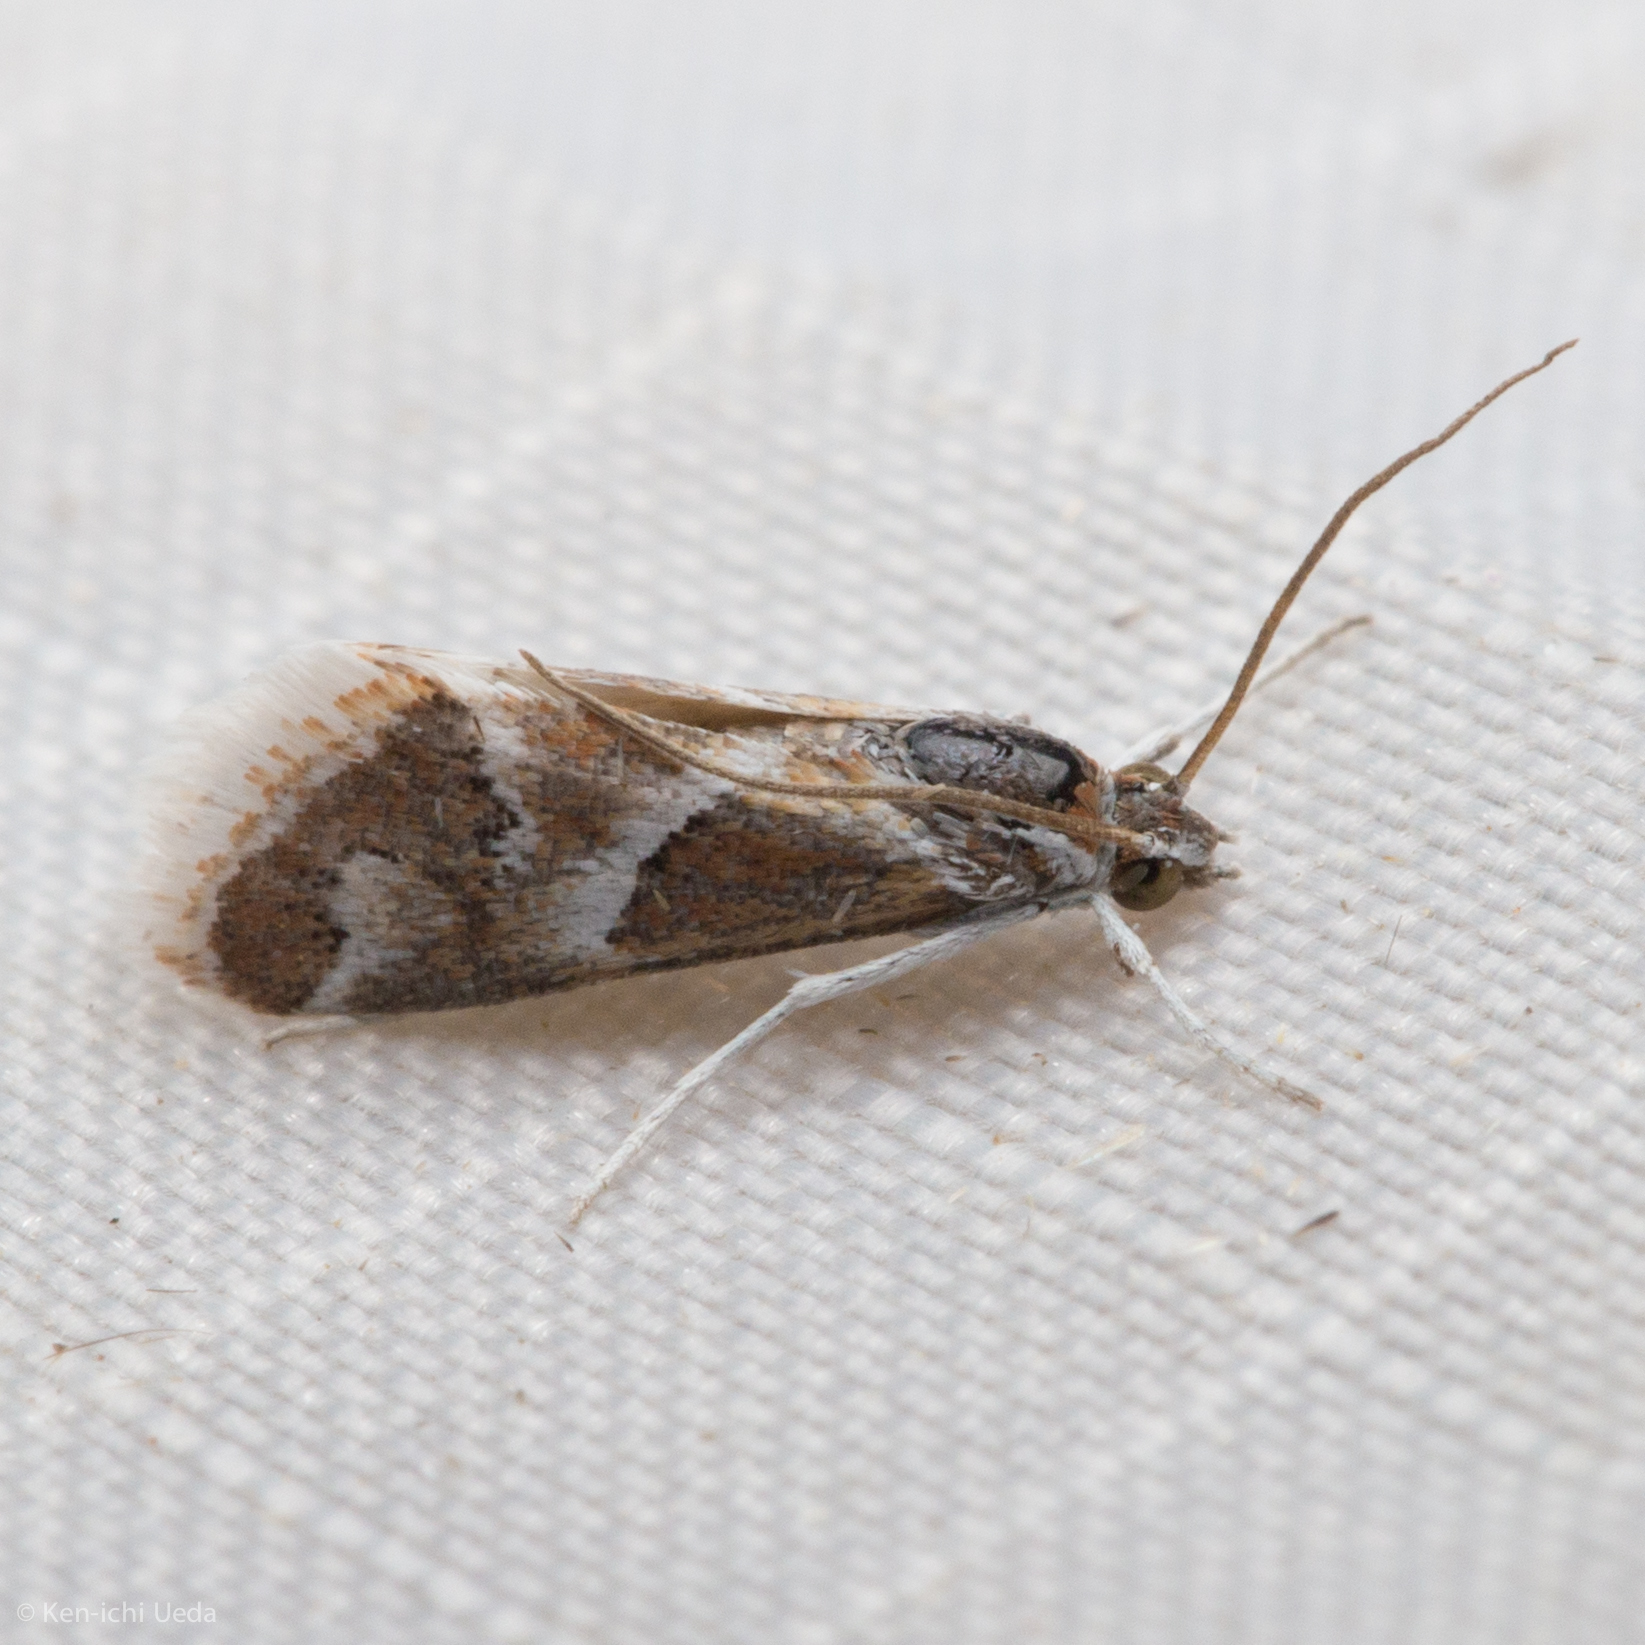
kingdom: Animalia
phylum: Arthropoda
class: Insecta
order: Lepidoptera
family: Crambidae
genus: Noctueliopsis
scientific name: Noctueliopsis virula
